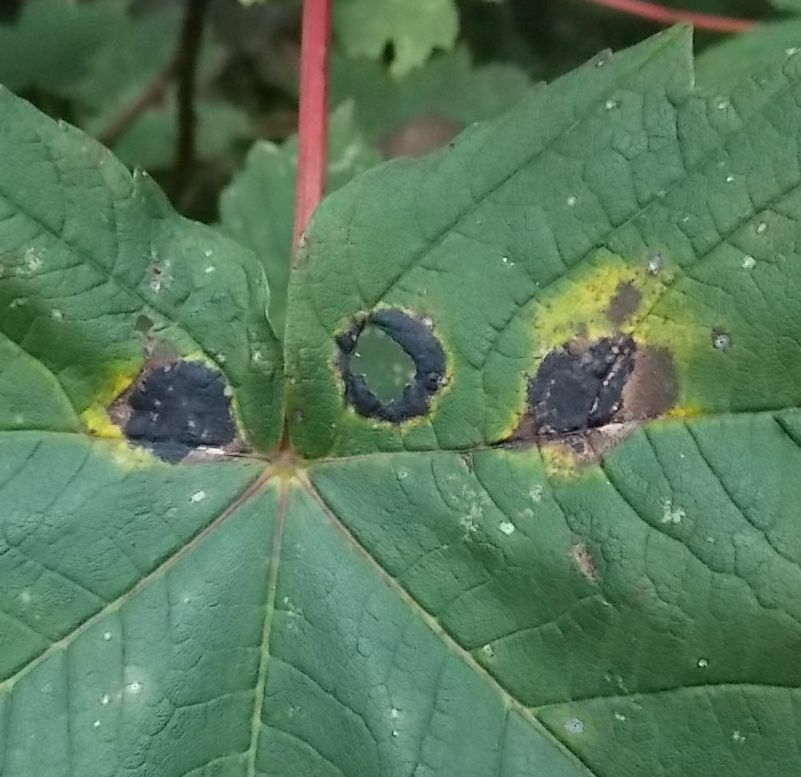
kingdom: Fungi
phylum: Ascomycota
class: Leotiomycetes
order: Rhytismatales
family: Rhytismataceae
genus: Rhytisma
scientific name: Rhytisma acerinum
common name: European tar spot
